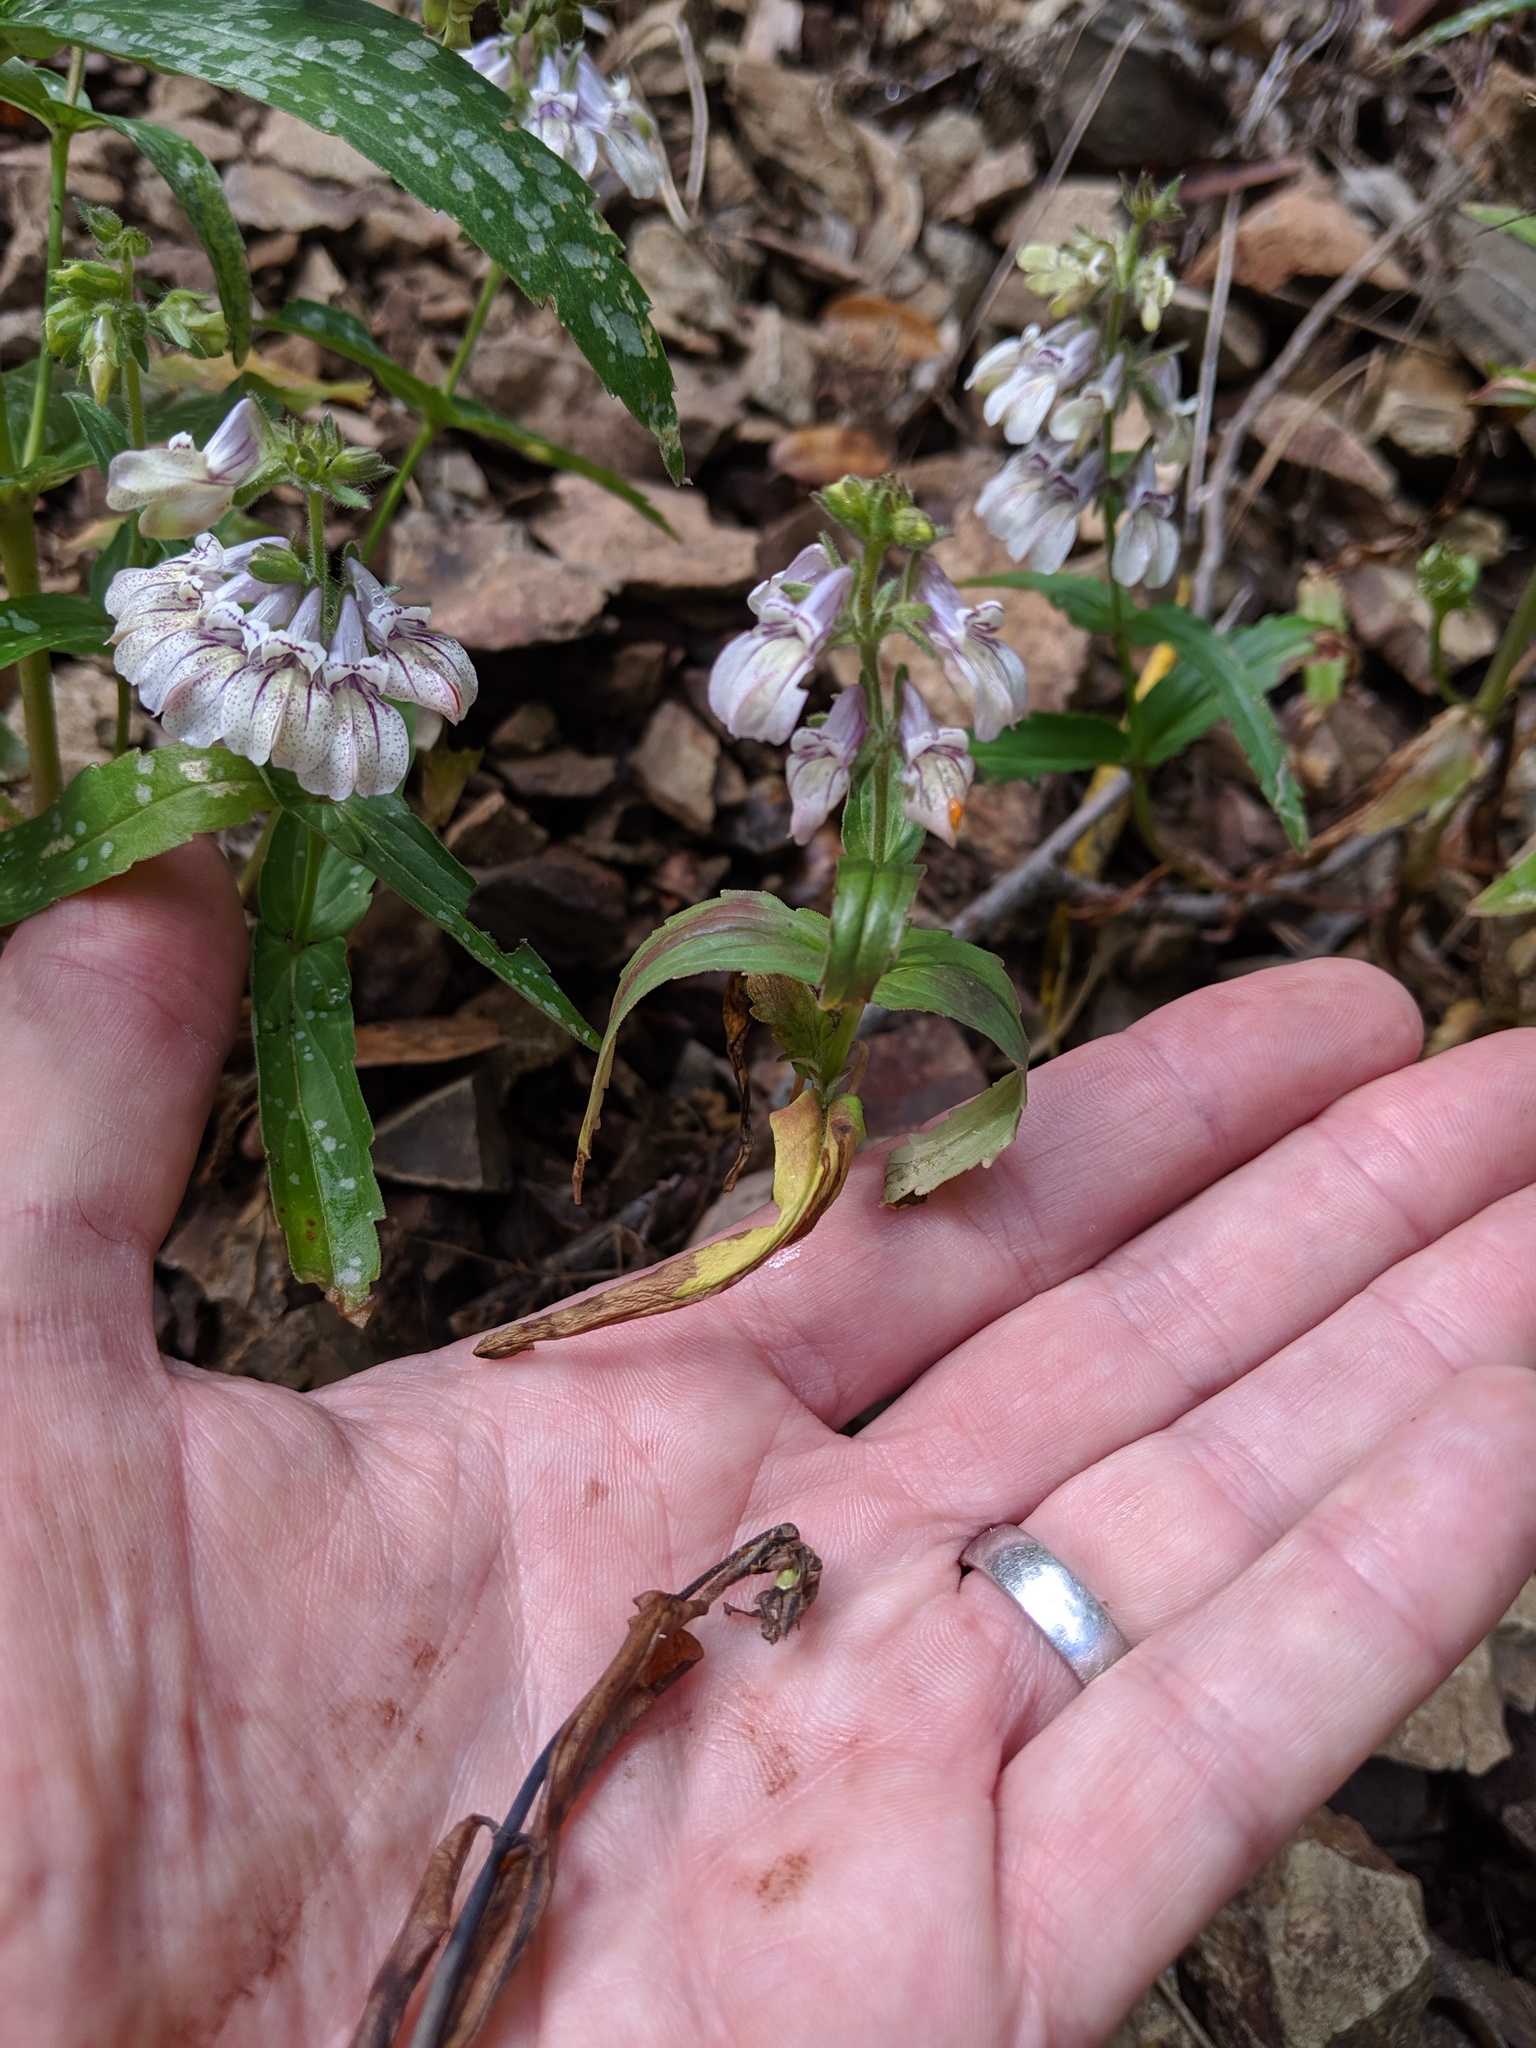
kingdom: Plantae
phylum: Tracheophyta
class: Magnoliopsida
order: Lamiales
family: Plantaginaceae
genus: Collinsia
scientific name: Collinsia tinctoria
